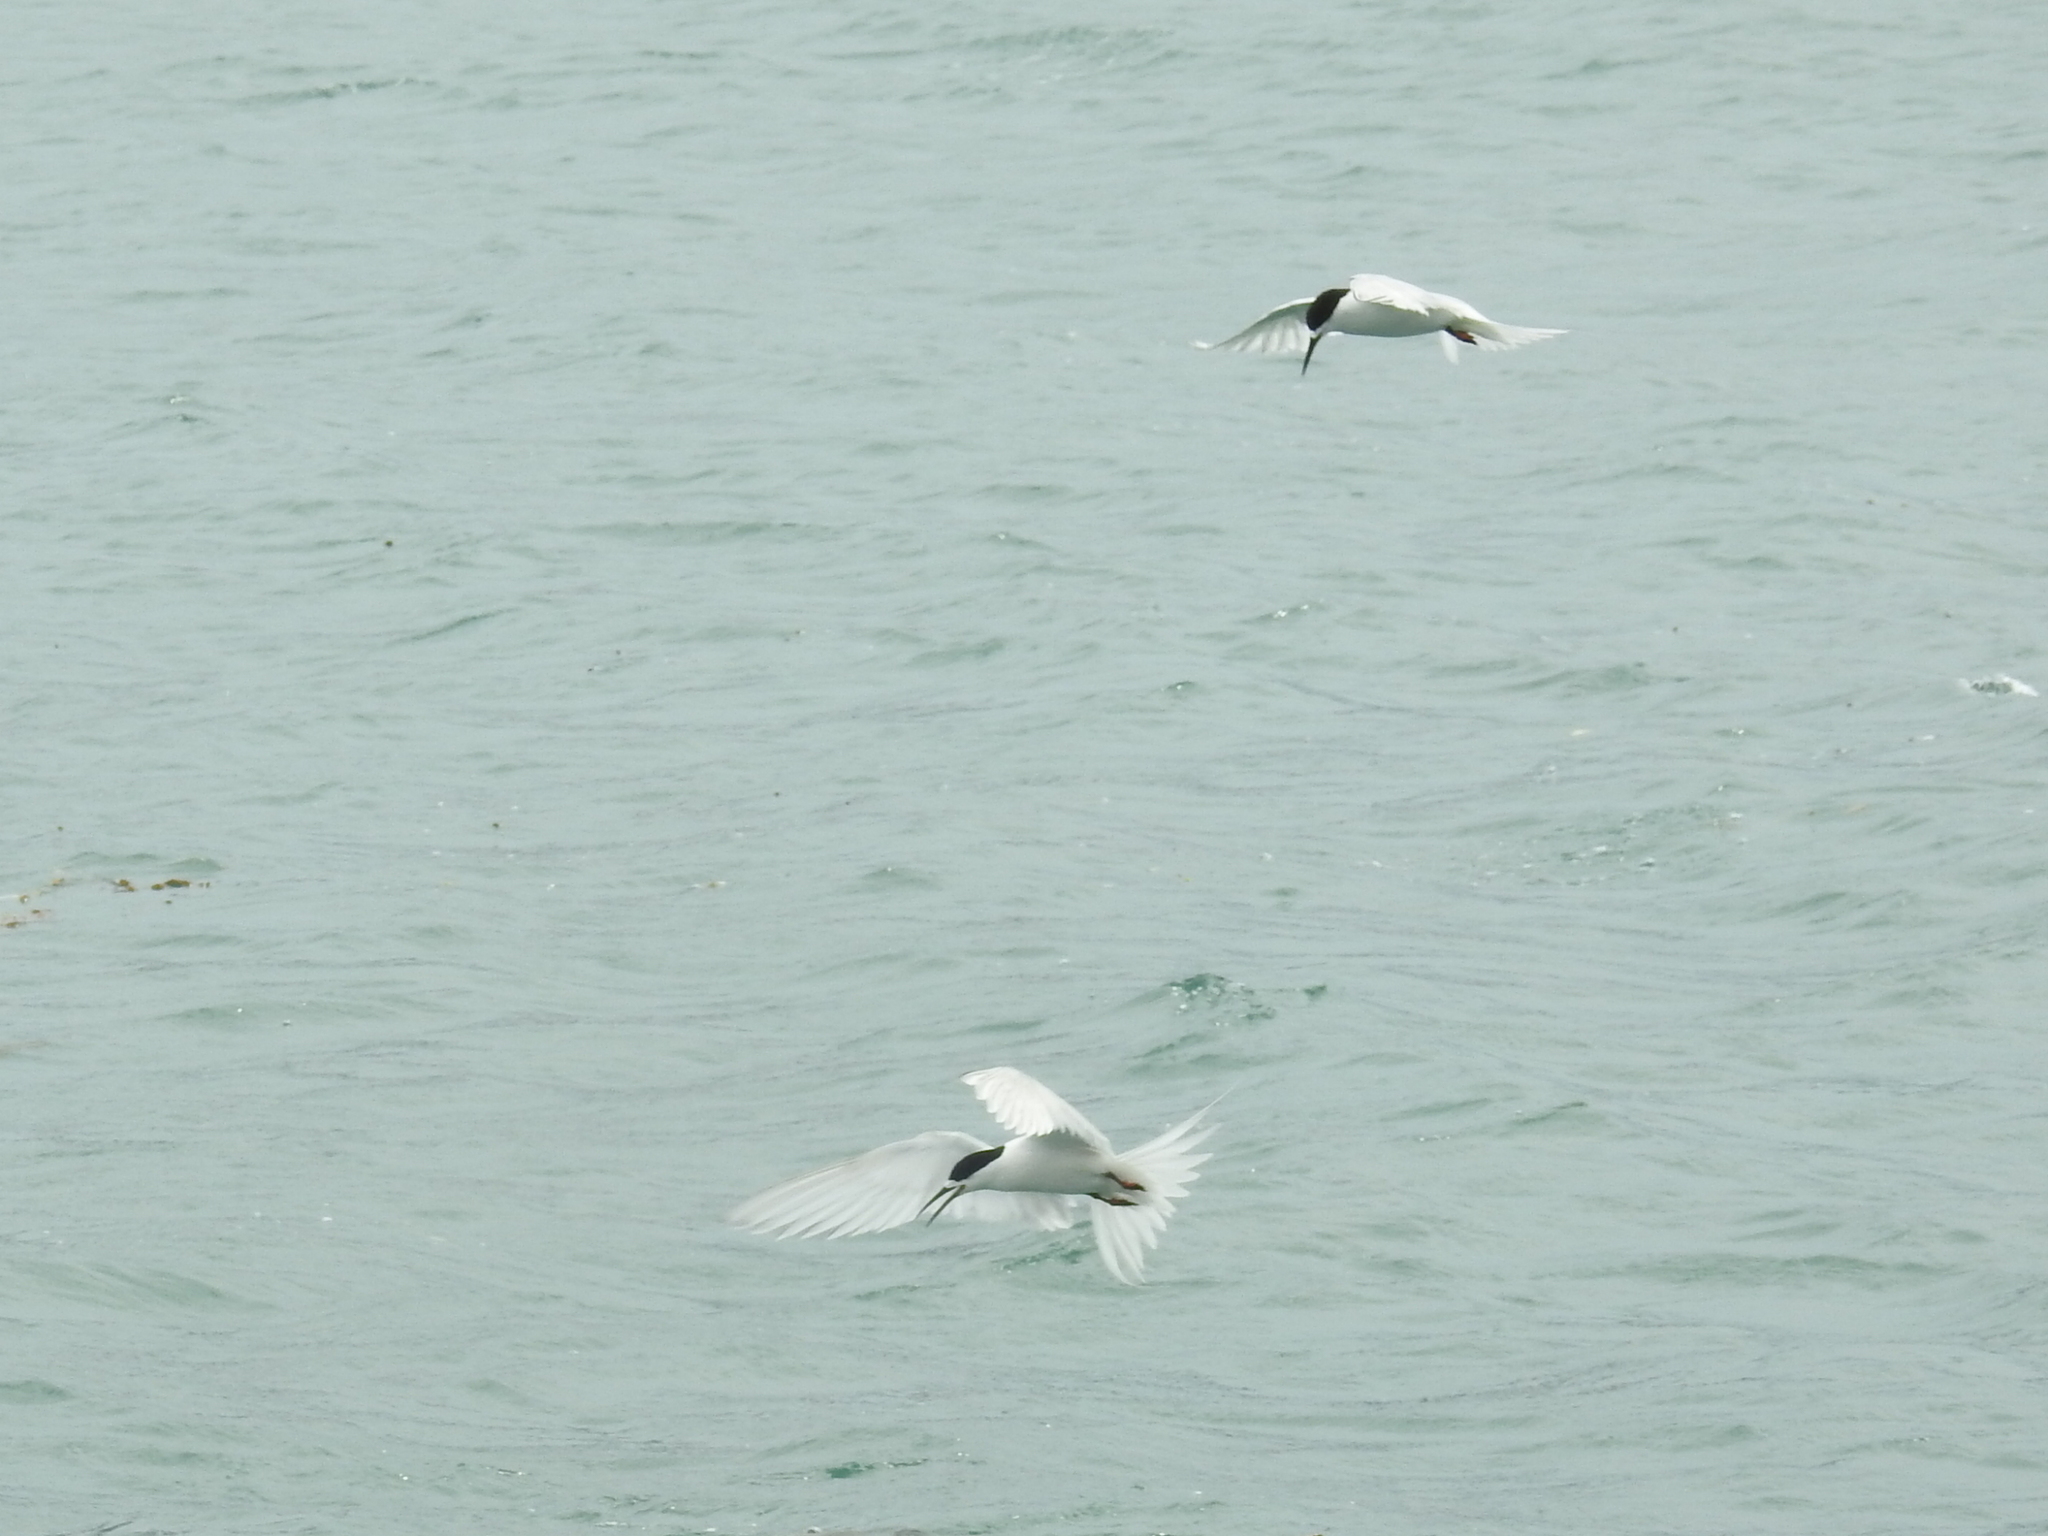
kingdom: Animalia
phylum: Chordata
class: Aves
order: Charadriiformes
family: Laridae
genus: Sterna
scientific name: Sterna striata
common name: White-fronted tern
